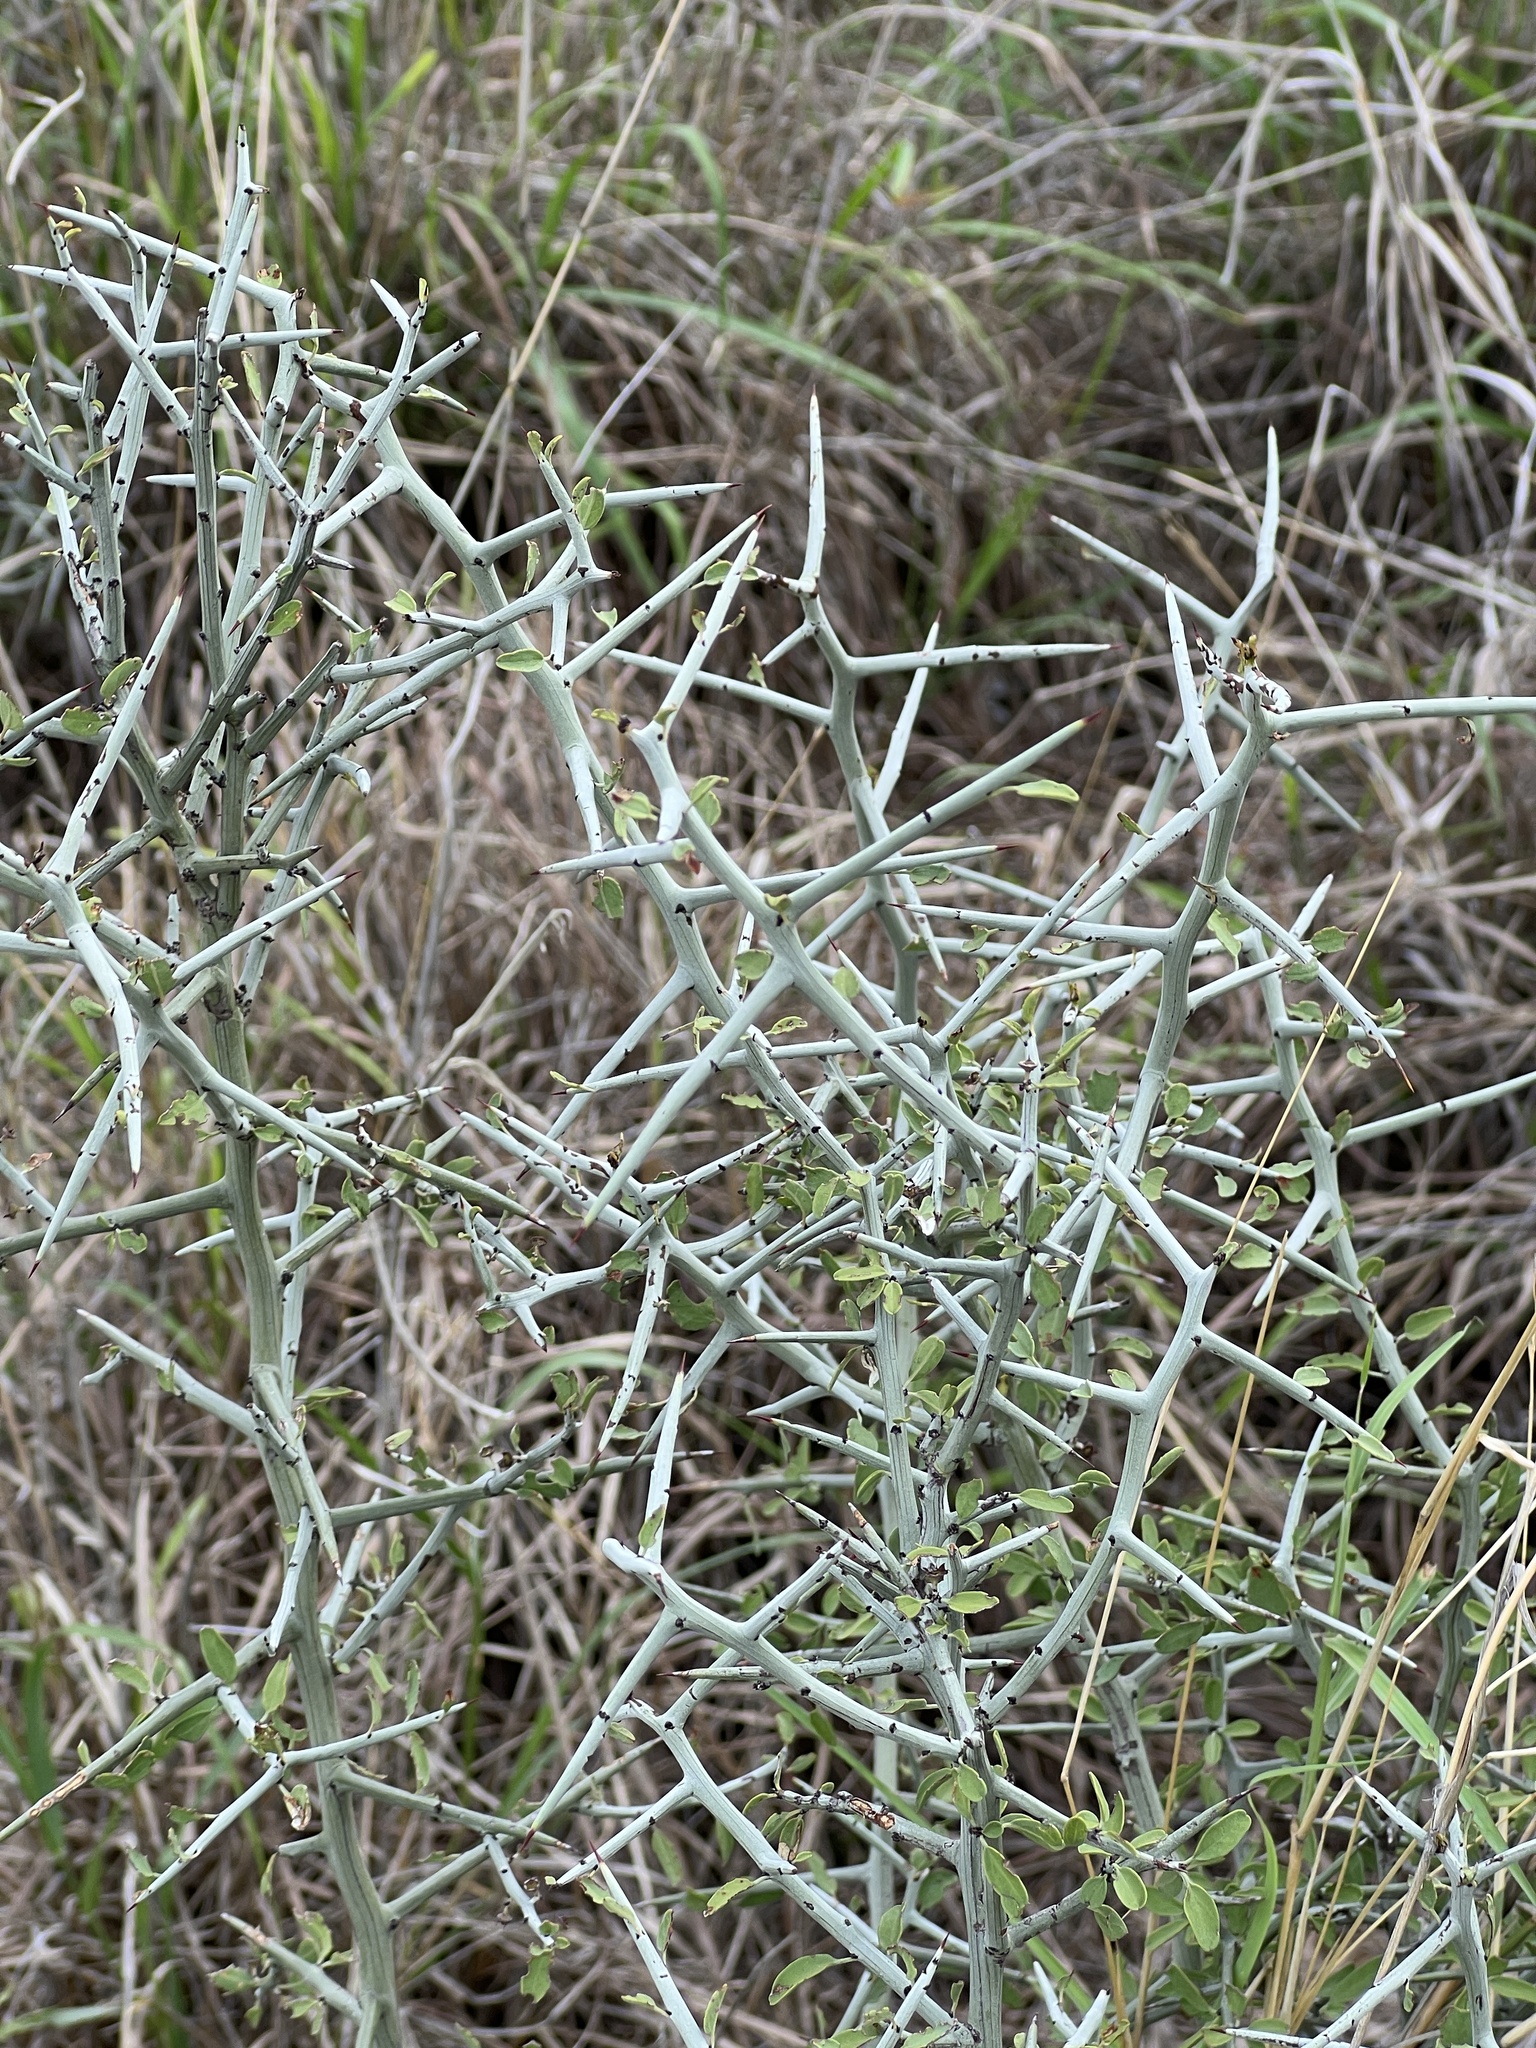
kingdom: Plantae
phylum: Tracheophyta
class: Magnoliopsida
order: Rosales
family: Rhamnaceae
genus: Sarcomphalus
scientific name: Sarcomphalus obtusifolius
